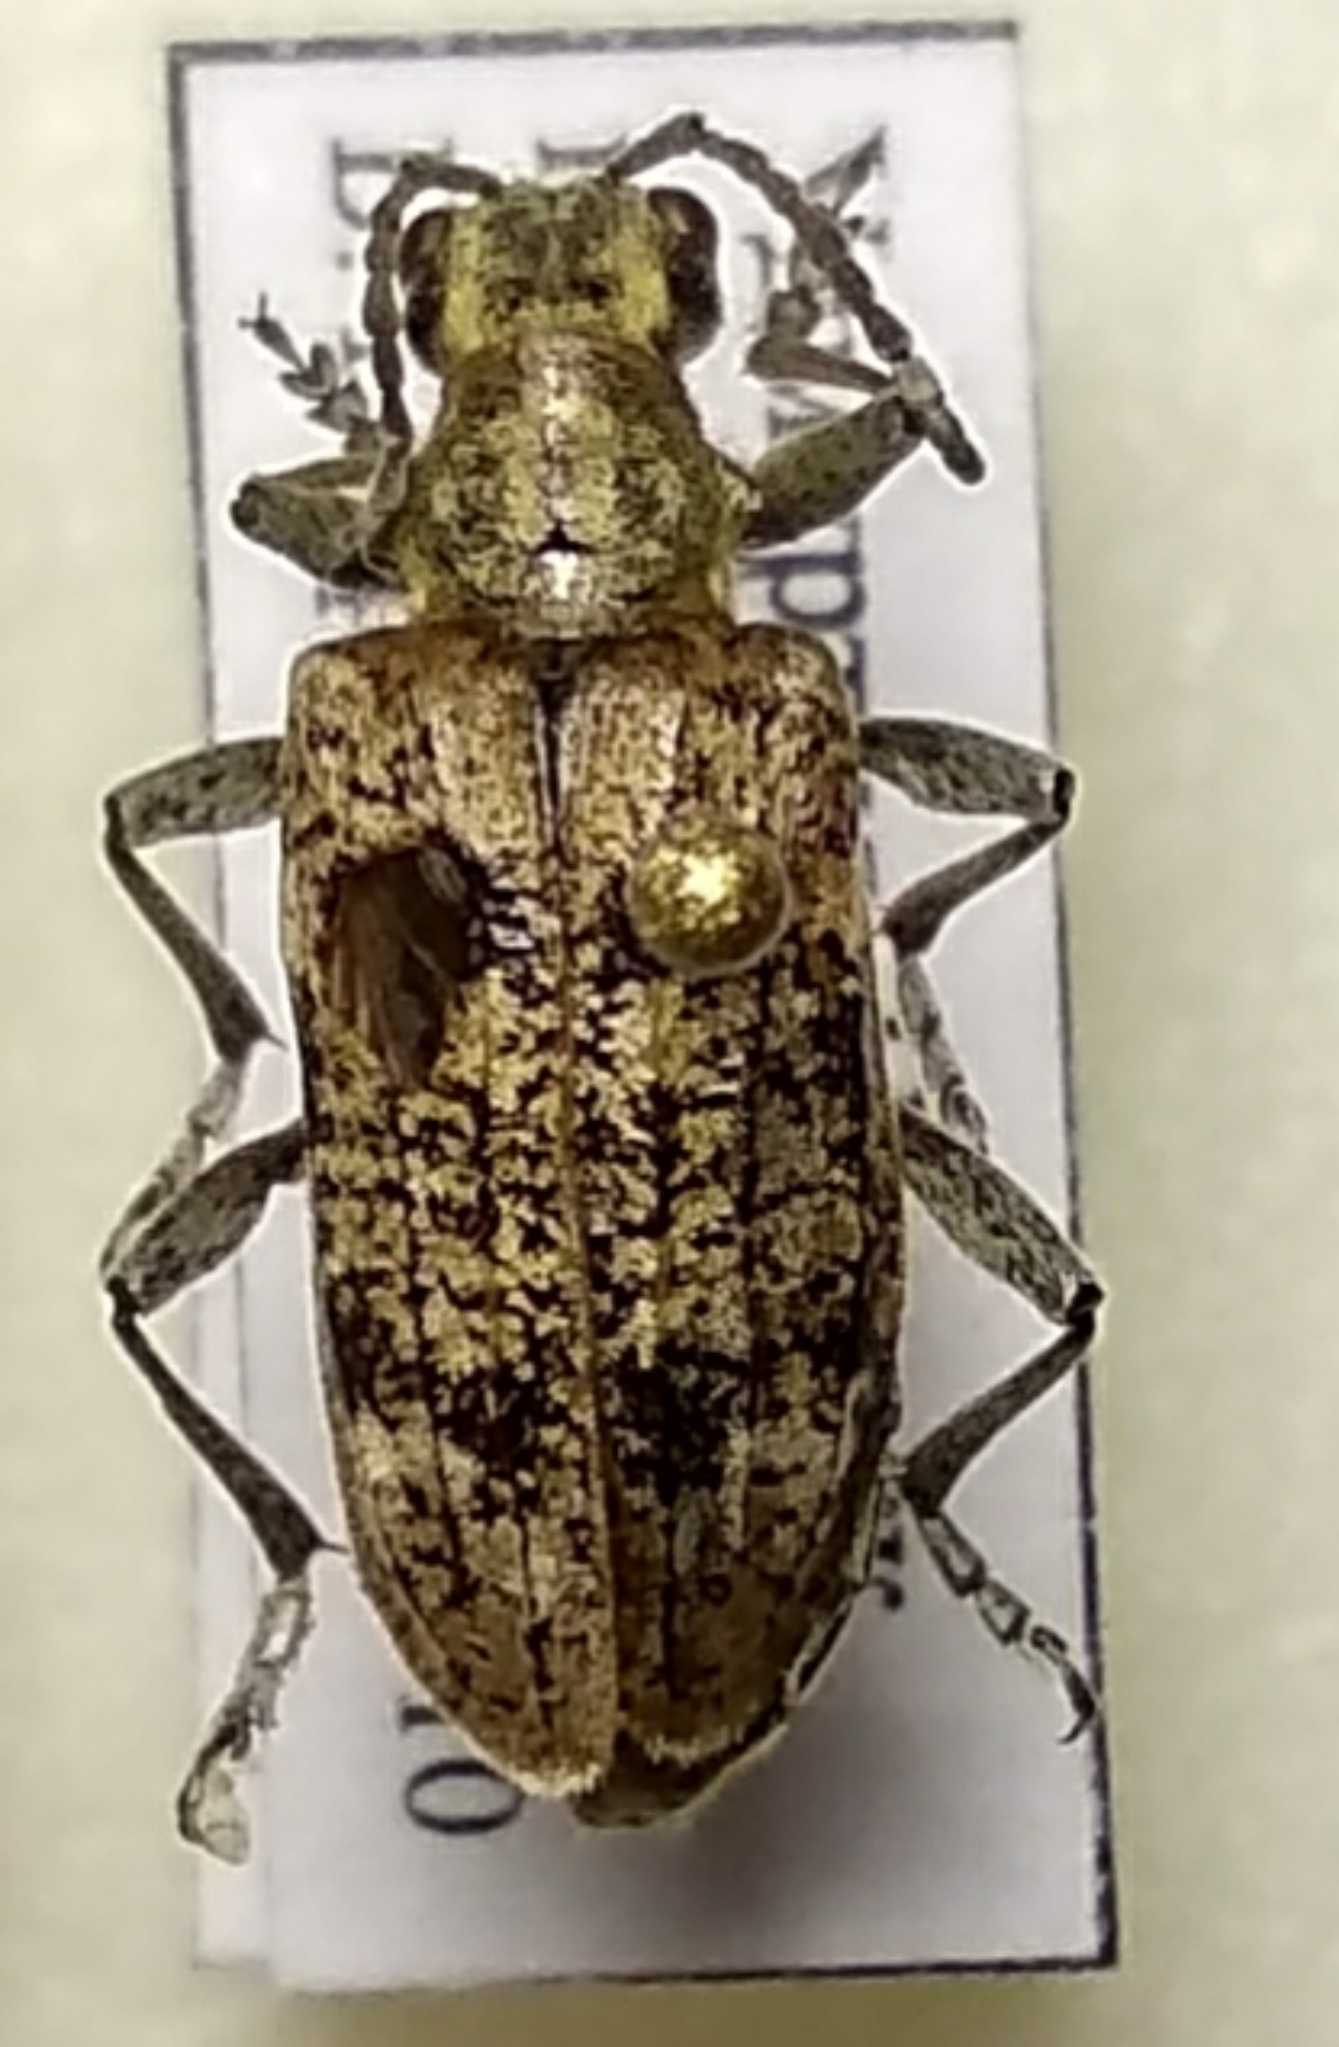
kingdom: Animalia
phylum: Arthropoda
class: Insecta
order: Coleoptera
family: Cerambycidae
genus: Rhagium
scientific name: Rhagium inquisitor
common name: Ribbed pine borer
